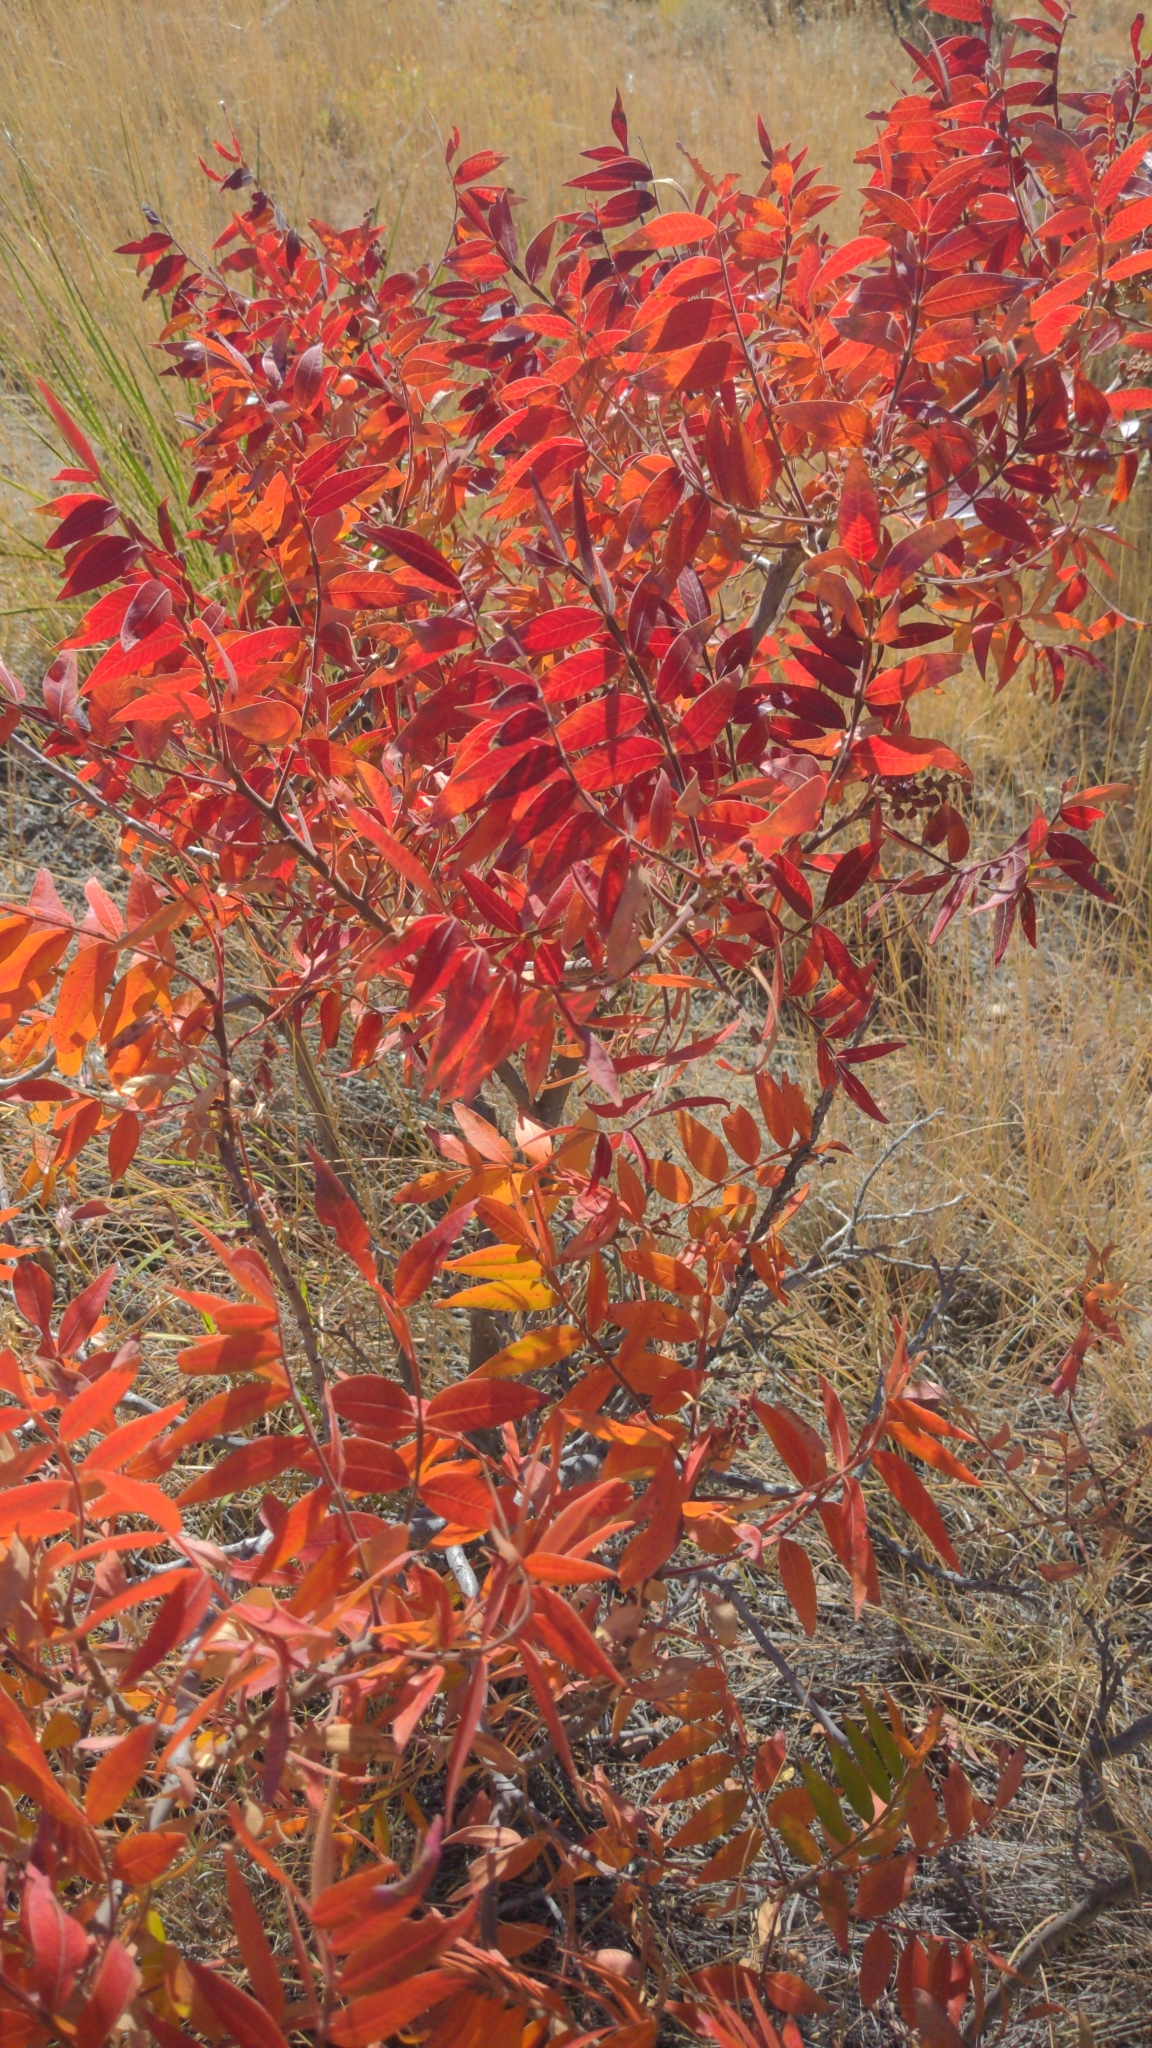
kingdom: Plantae
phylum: Tracheophyta
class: Magnoliopsida
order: Sapindales
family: Anacardiaceae
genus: Rhus
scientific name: Rhus lanceolata
